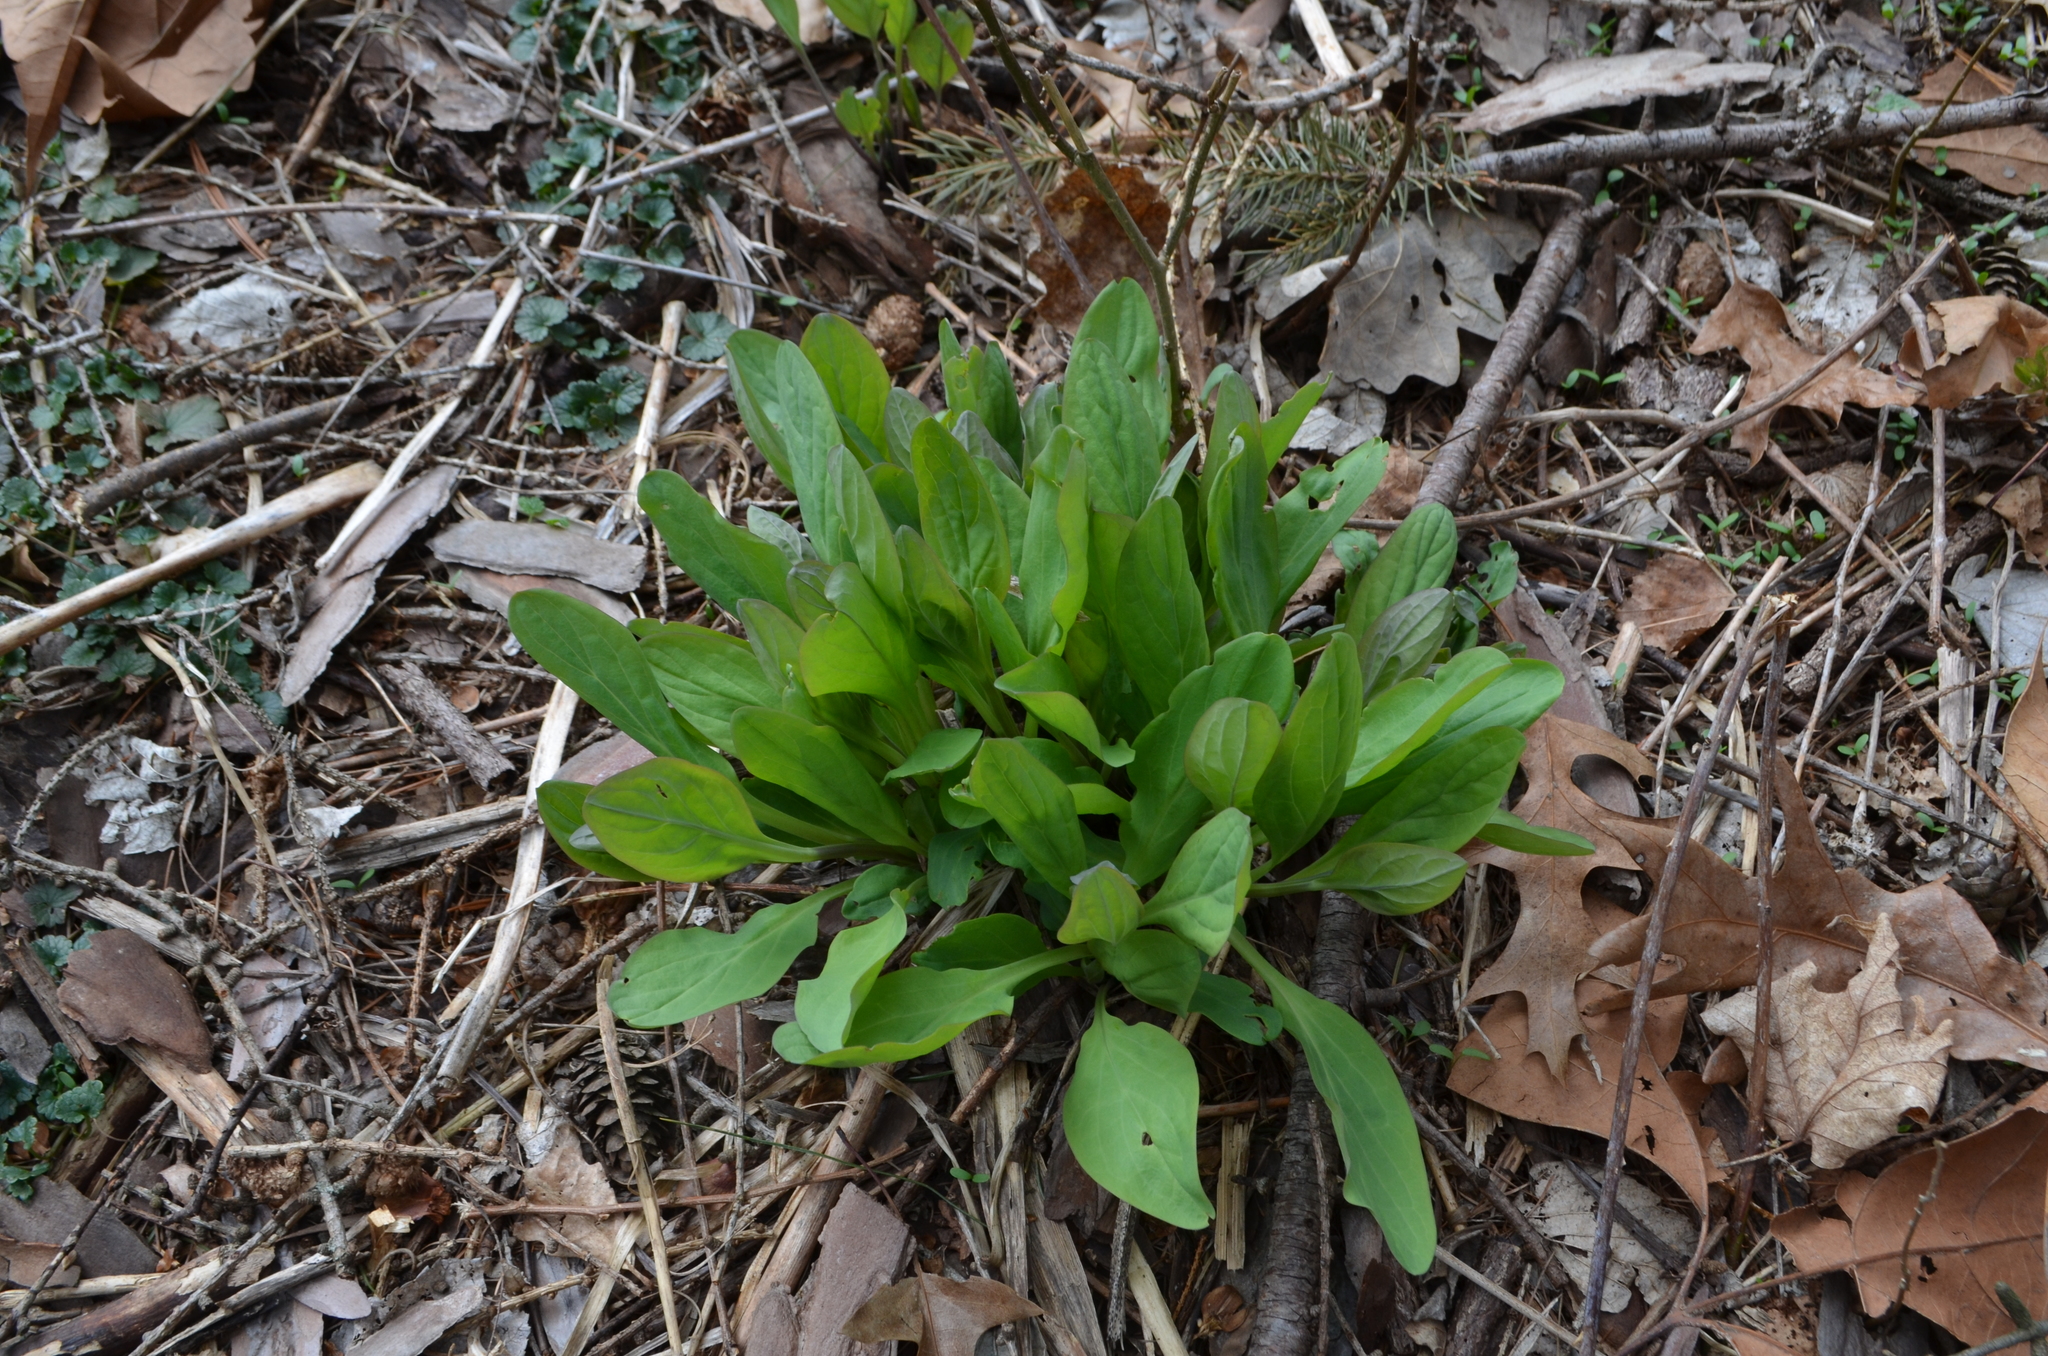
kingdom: Plantae
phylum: Tracheophyta
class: Magnoliopsida
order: Boraginales
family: Boraginaceae
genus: Mertensia
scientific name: Mertensia virginica
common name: Virginia bluebells
